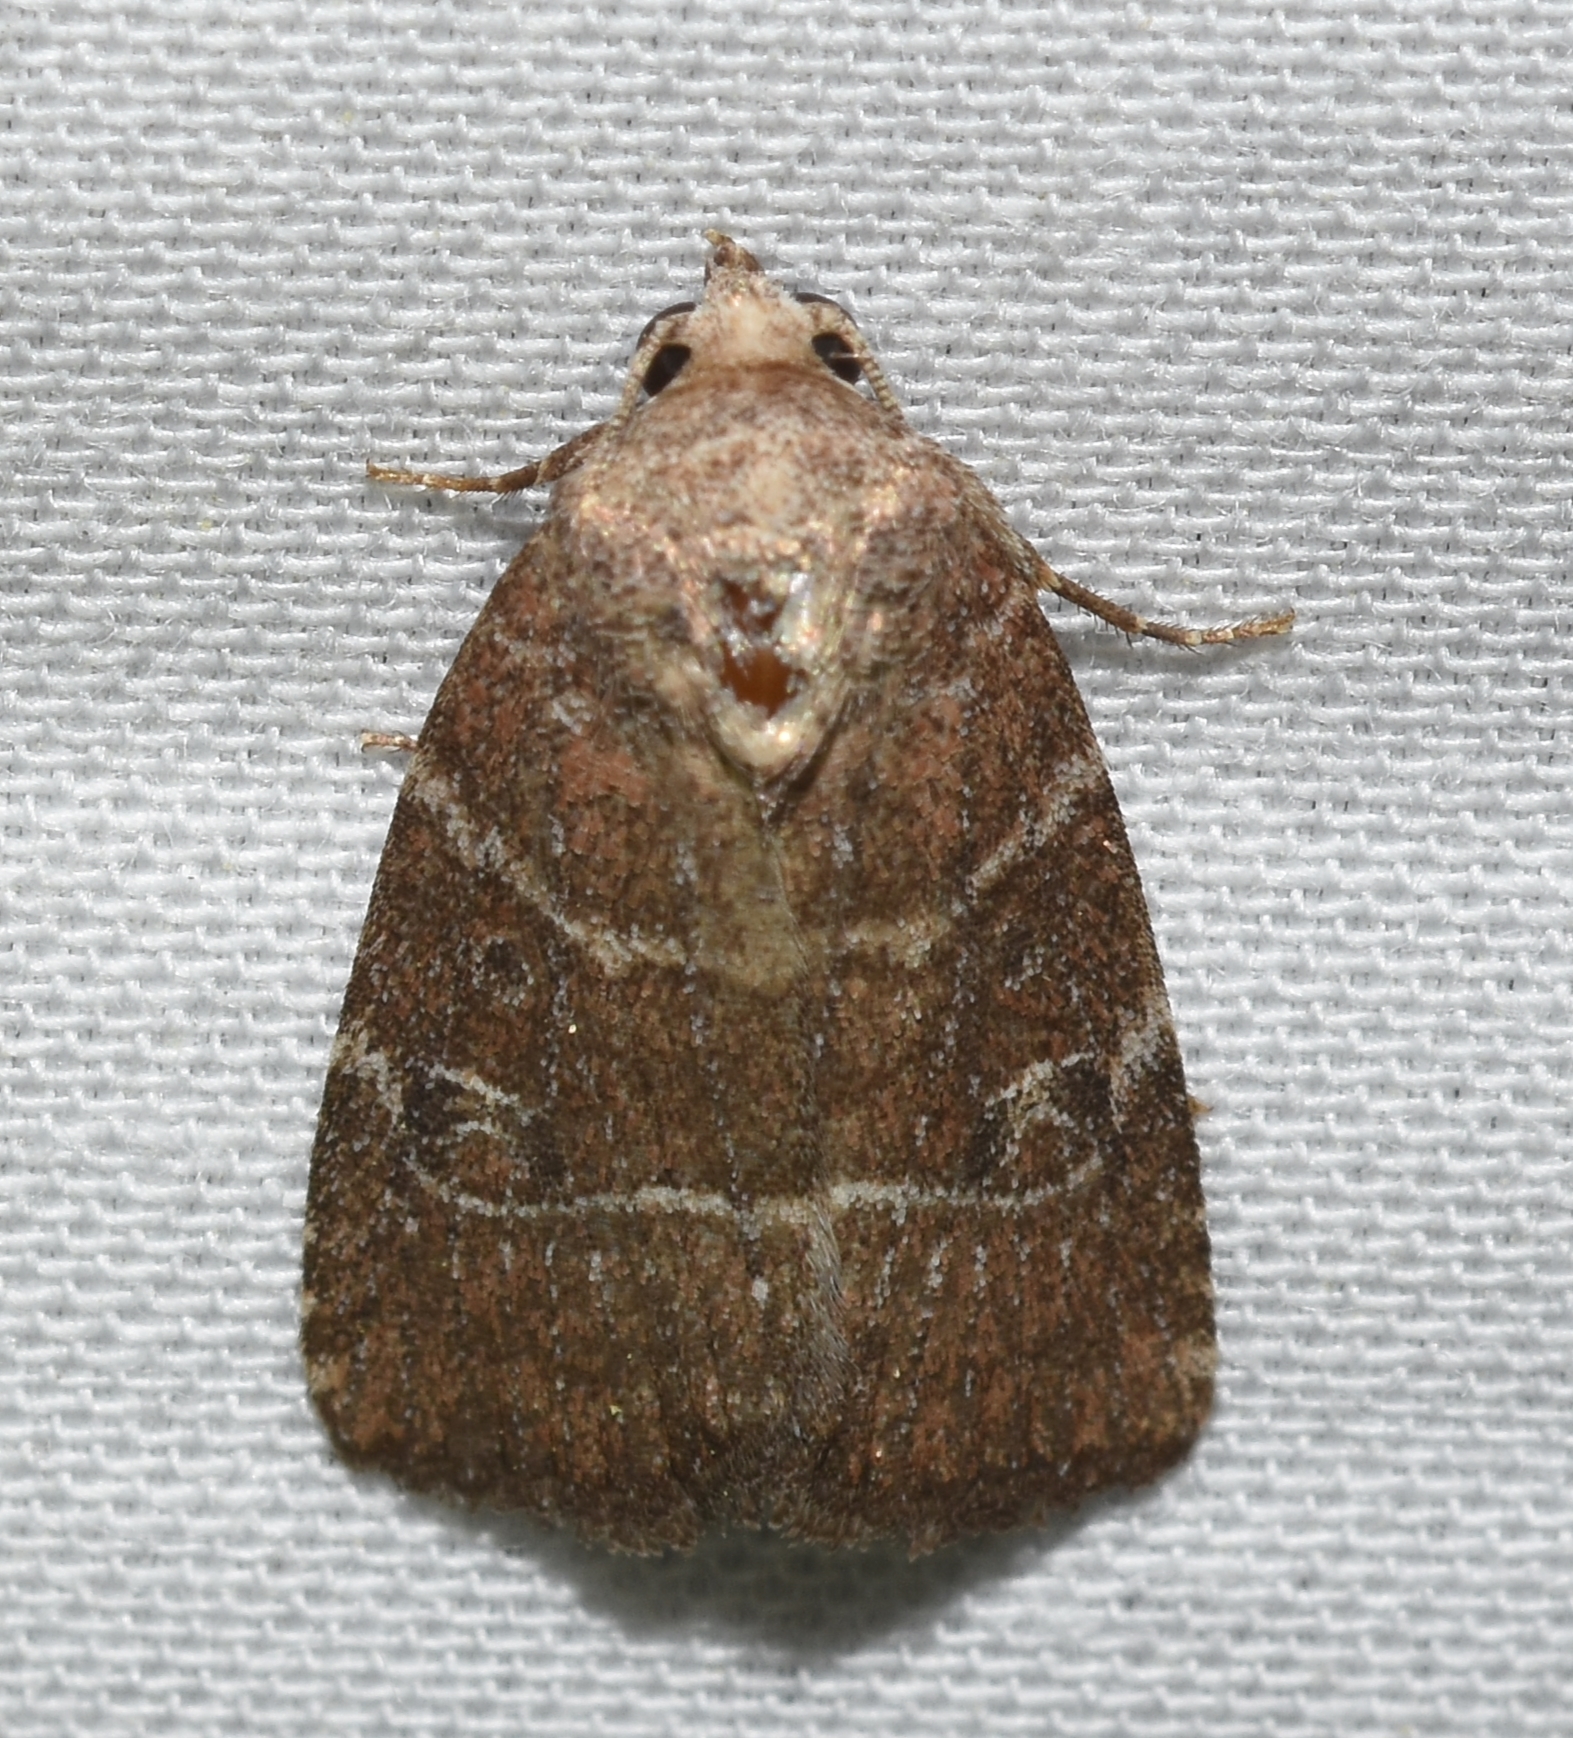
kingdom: Animalia
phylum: Arthropoda
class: Insecta
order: Lepidoptera
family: Noctuidae
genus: Elaphria
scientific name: Elaphria grata
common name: Grateful midget moth
